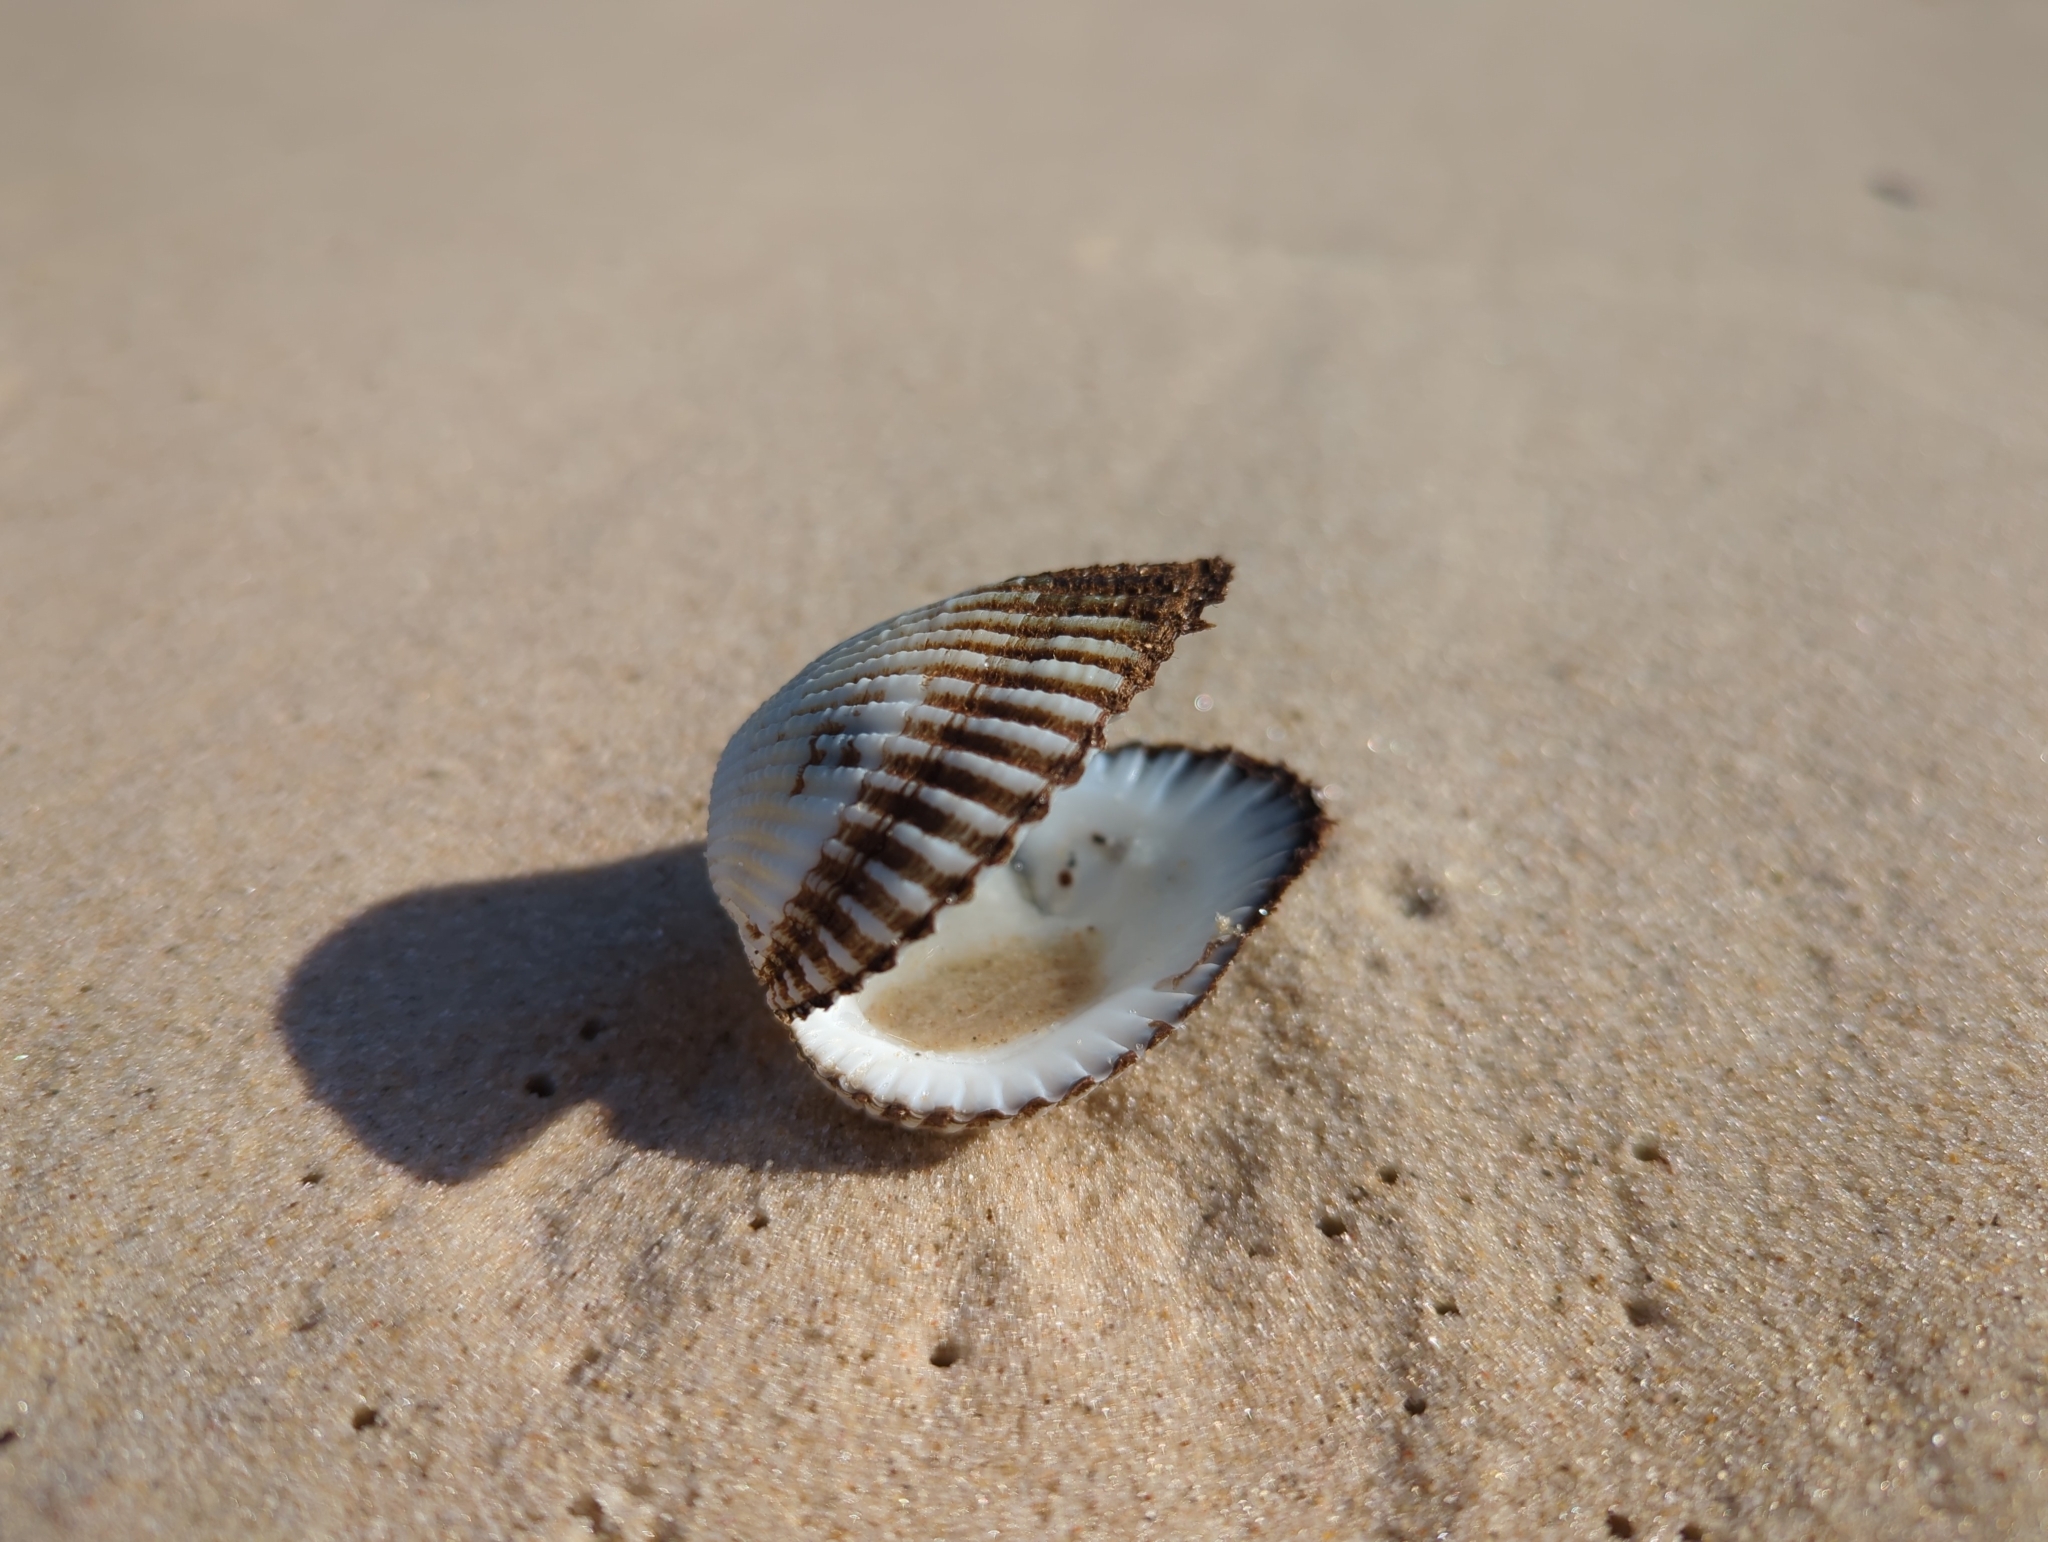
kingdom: Animalia
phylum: Mollusca
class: Bivalvia
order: Arcida
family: Arcidae
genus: Anadara
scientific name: Anadara trapezia
